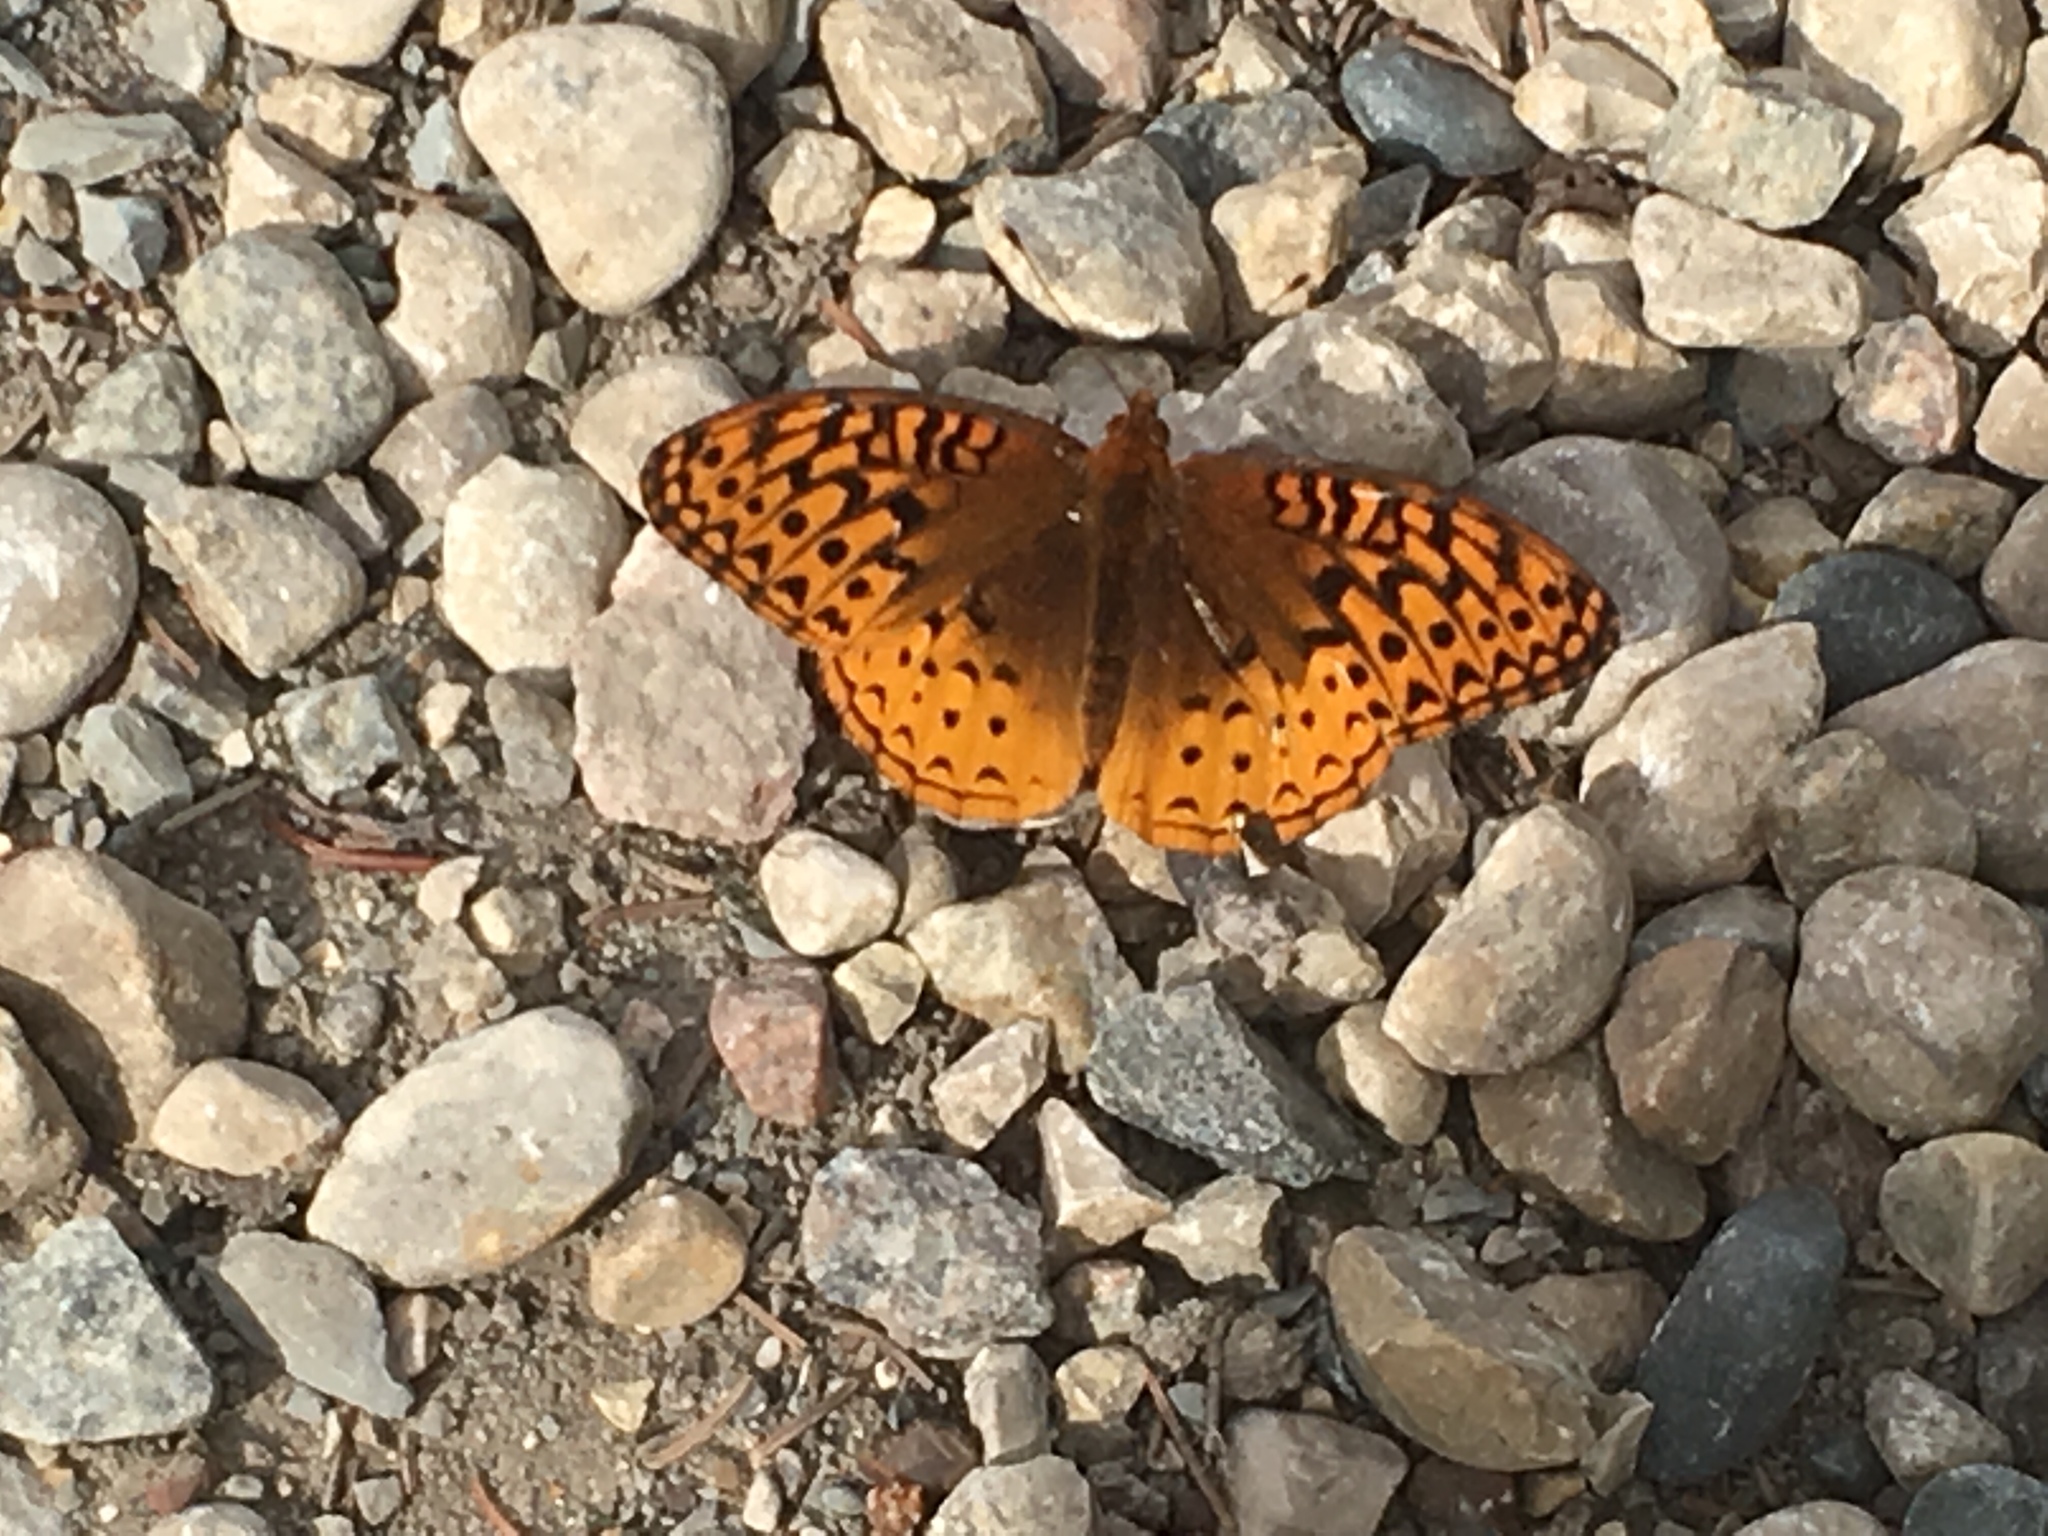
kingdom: Animalia
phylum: Arthropoda
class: Insecta
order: Lepidoptera
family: Nymphalidae
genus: Speyeria
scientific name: Speyeria cybele
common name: Great spangled fritillary
